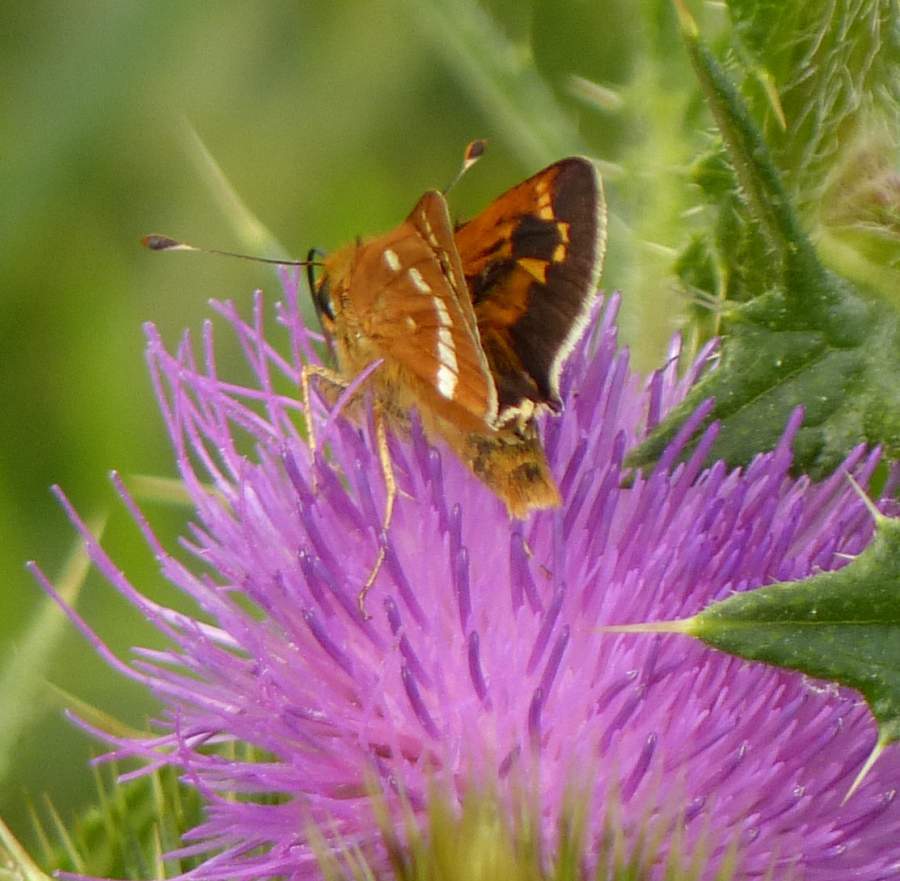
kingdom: Animalia
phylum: Arthropoda
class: Insecta
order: Lepidoptera
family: Hesperiidae
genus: Hesperia
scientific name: Hesperia leonardus
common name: Leonard's skipper
